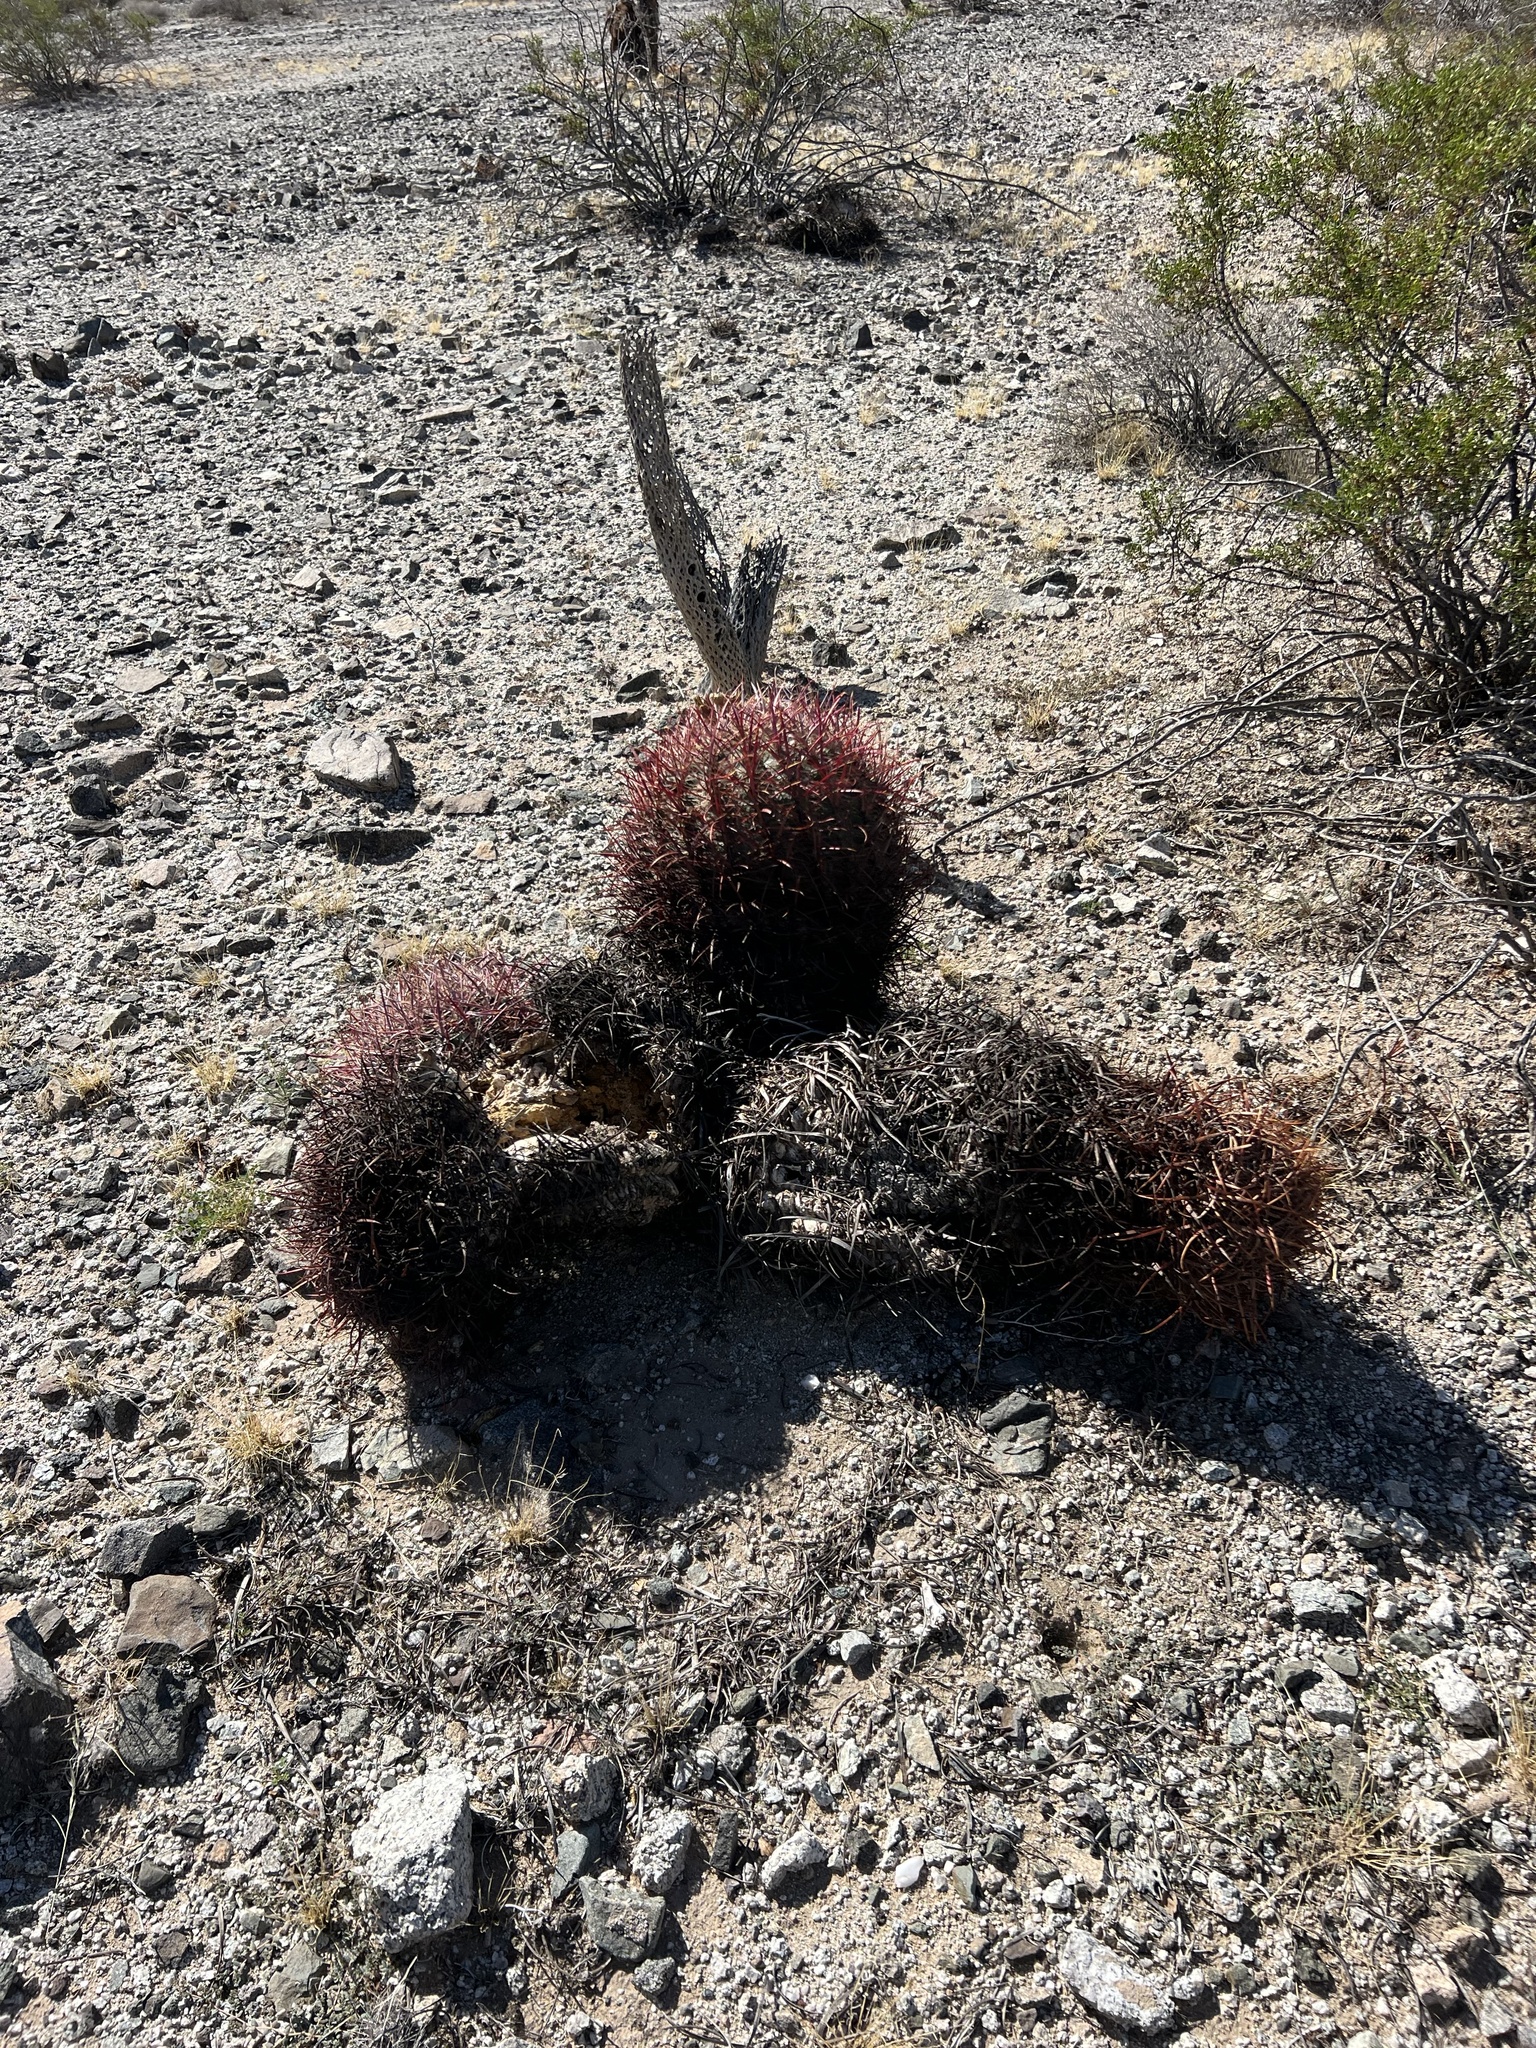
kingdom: Plantae
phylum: Tracheophyta
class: Magnoliopsida
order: Caryophyllales
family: Cactaceae
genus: Ferocactus
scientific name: Ferocactus cylindraceus
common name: California barrel cactus
